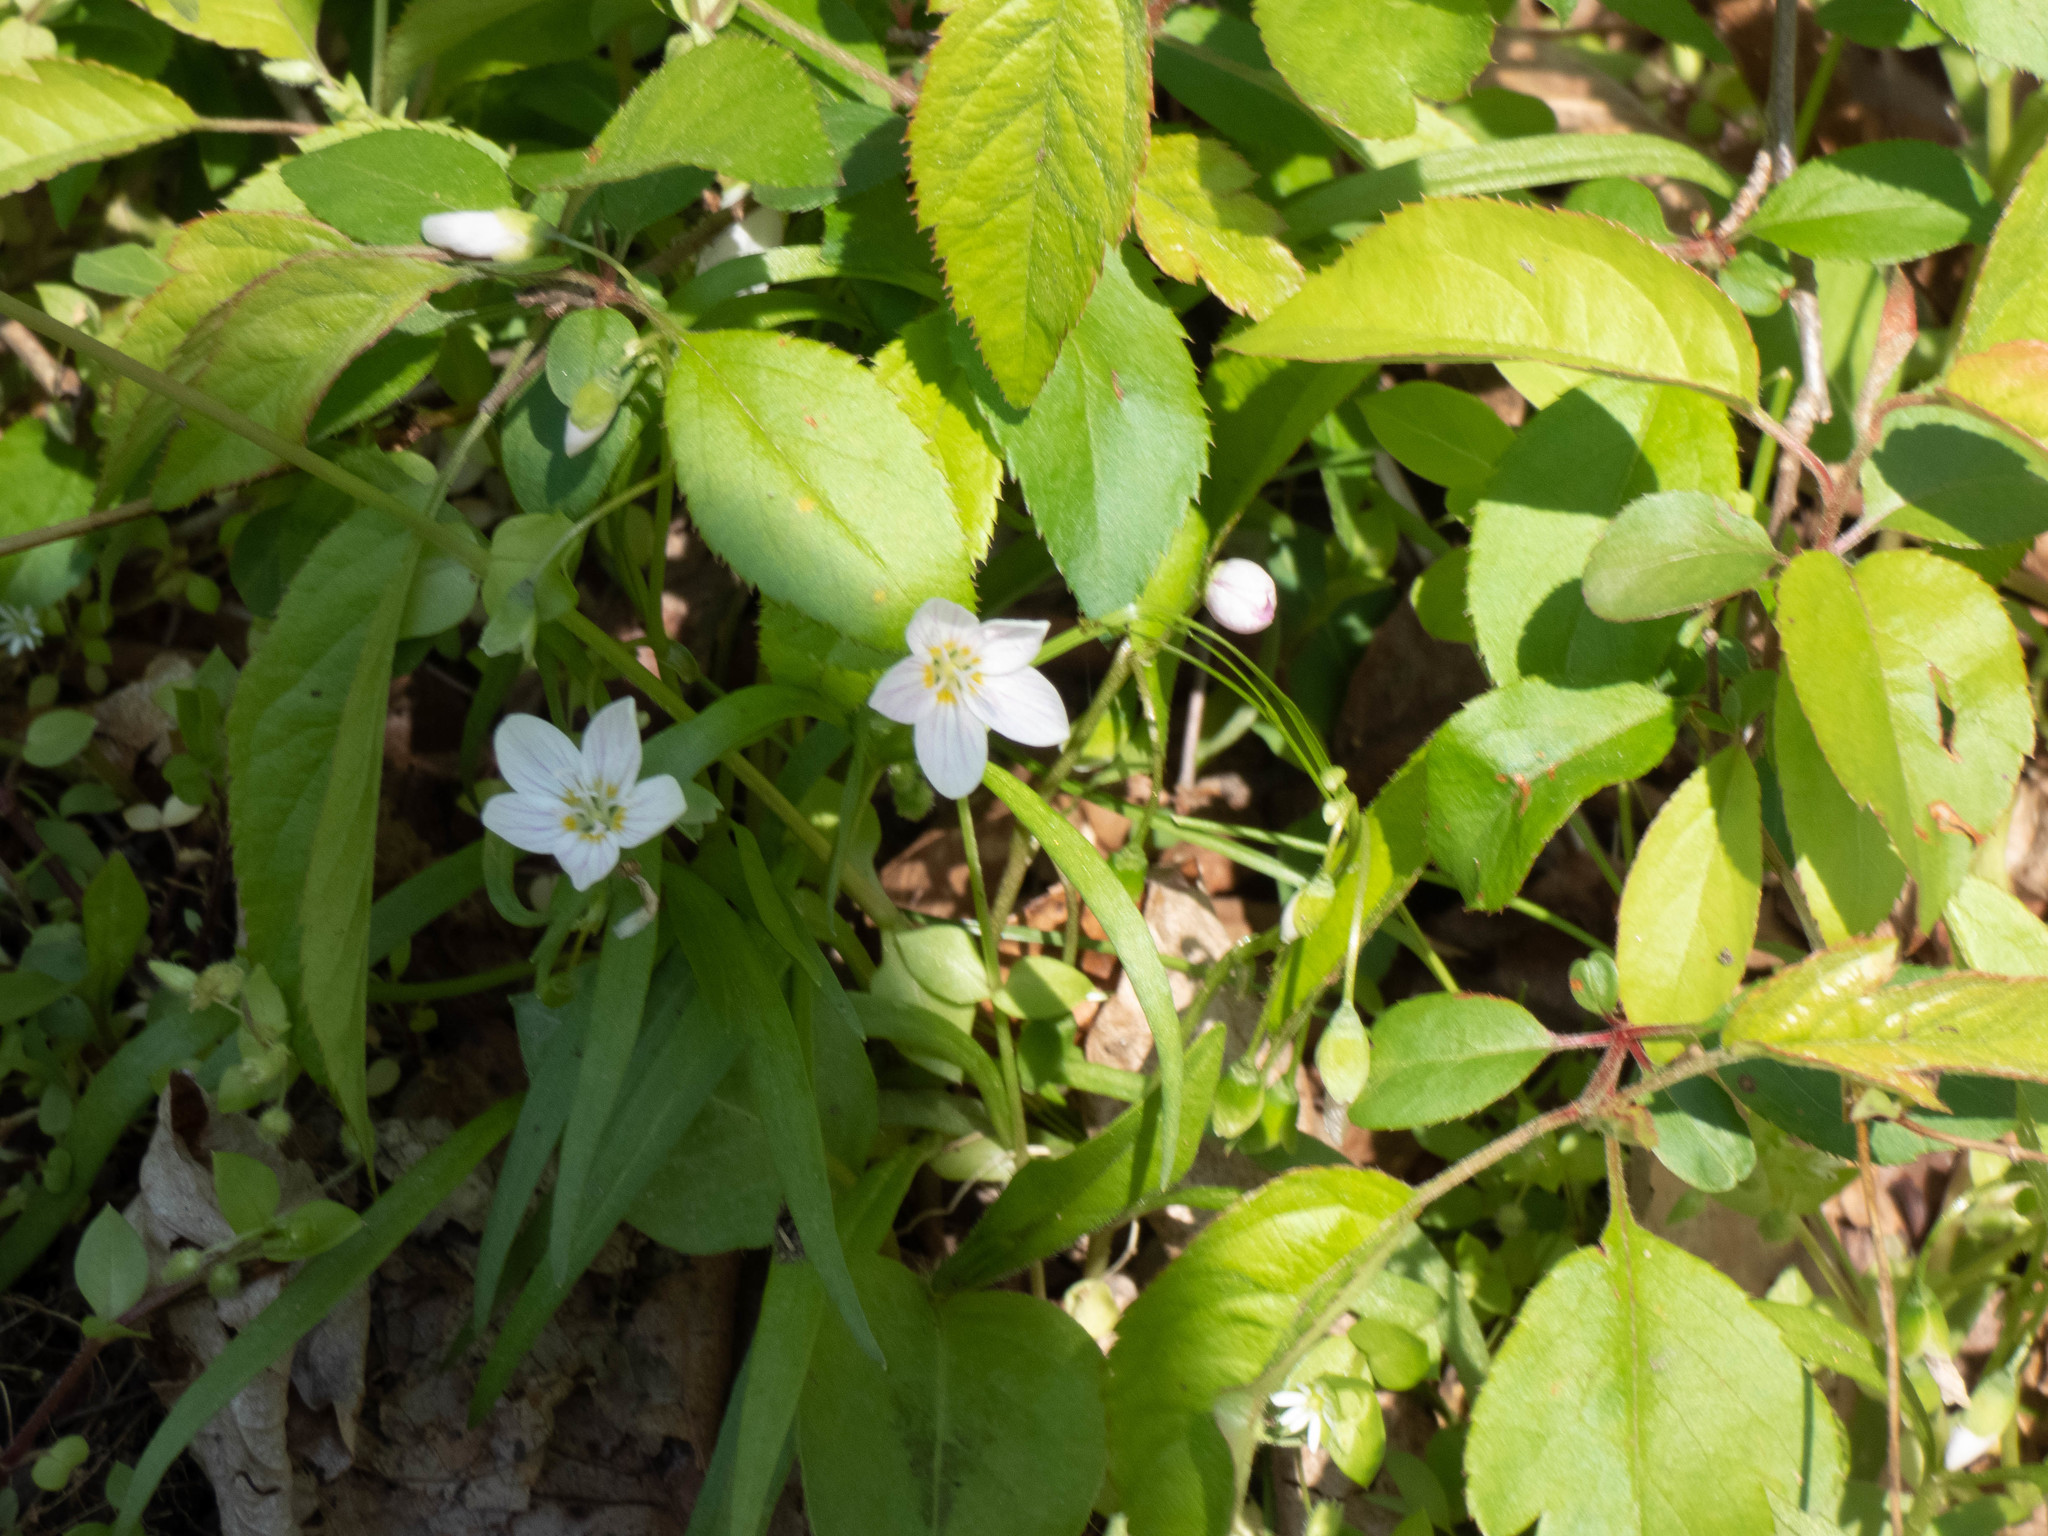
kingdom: Plantae
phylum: Tracheophyta
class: Magnoliopsida
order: Caryophyllales
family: Montiaceae
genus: Claytonia
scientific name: Claytonia virginica
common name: Virginia springbeauty
